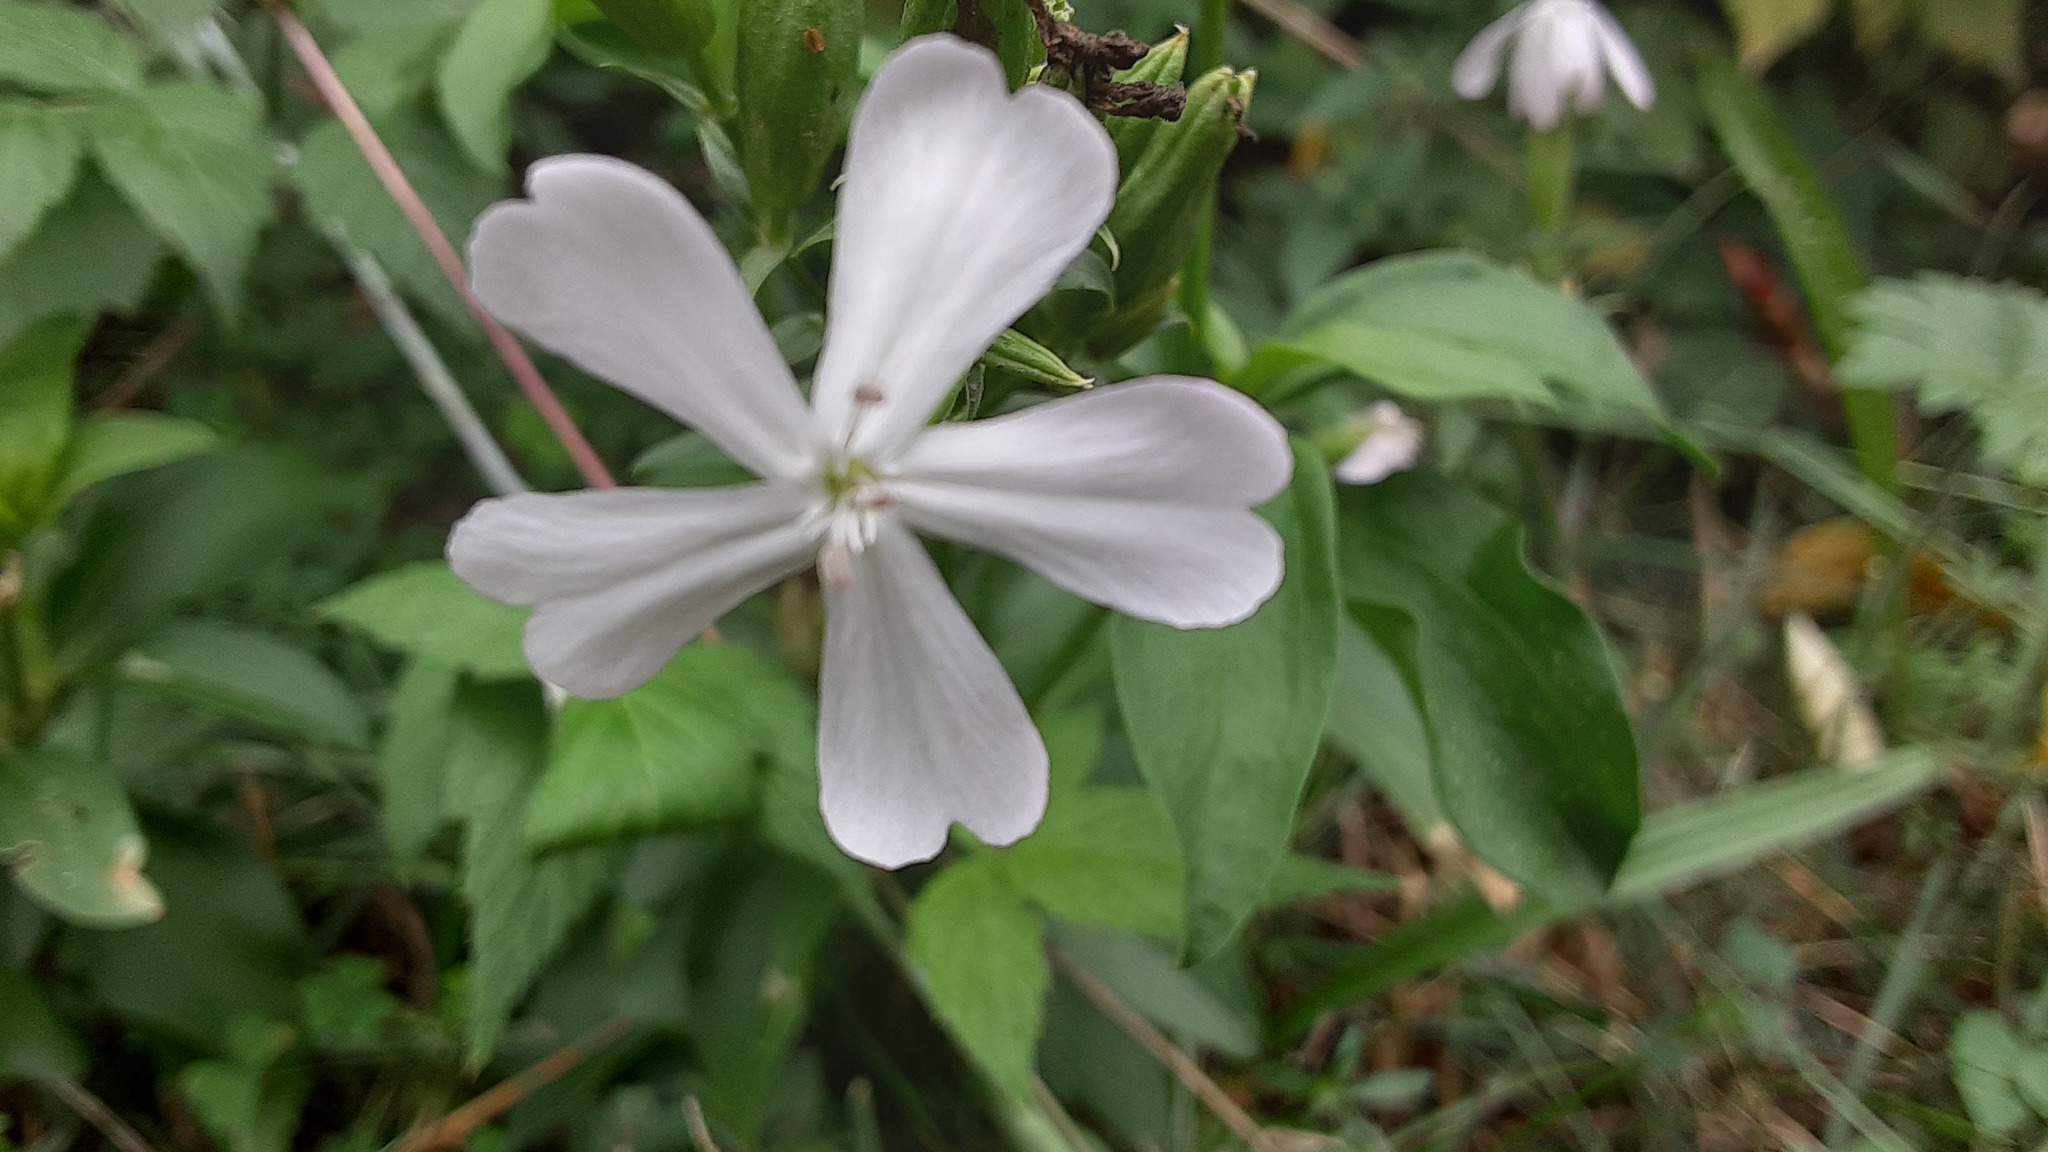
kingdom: Plantae
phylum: Tracheophyta
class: Magnoliopsida
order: Caryophyllales
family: Caryophyllaceae
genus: Saponaria
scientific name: Saponaria officinalis
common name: Soapwort
